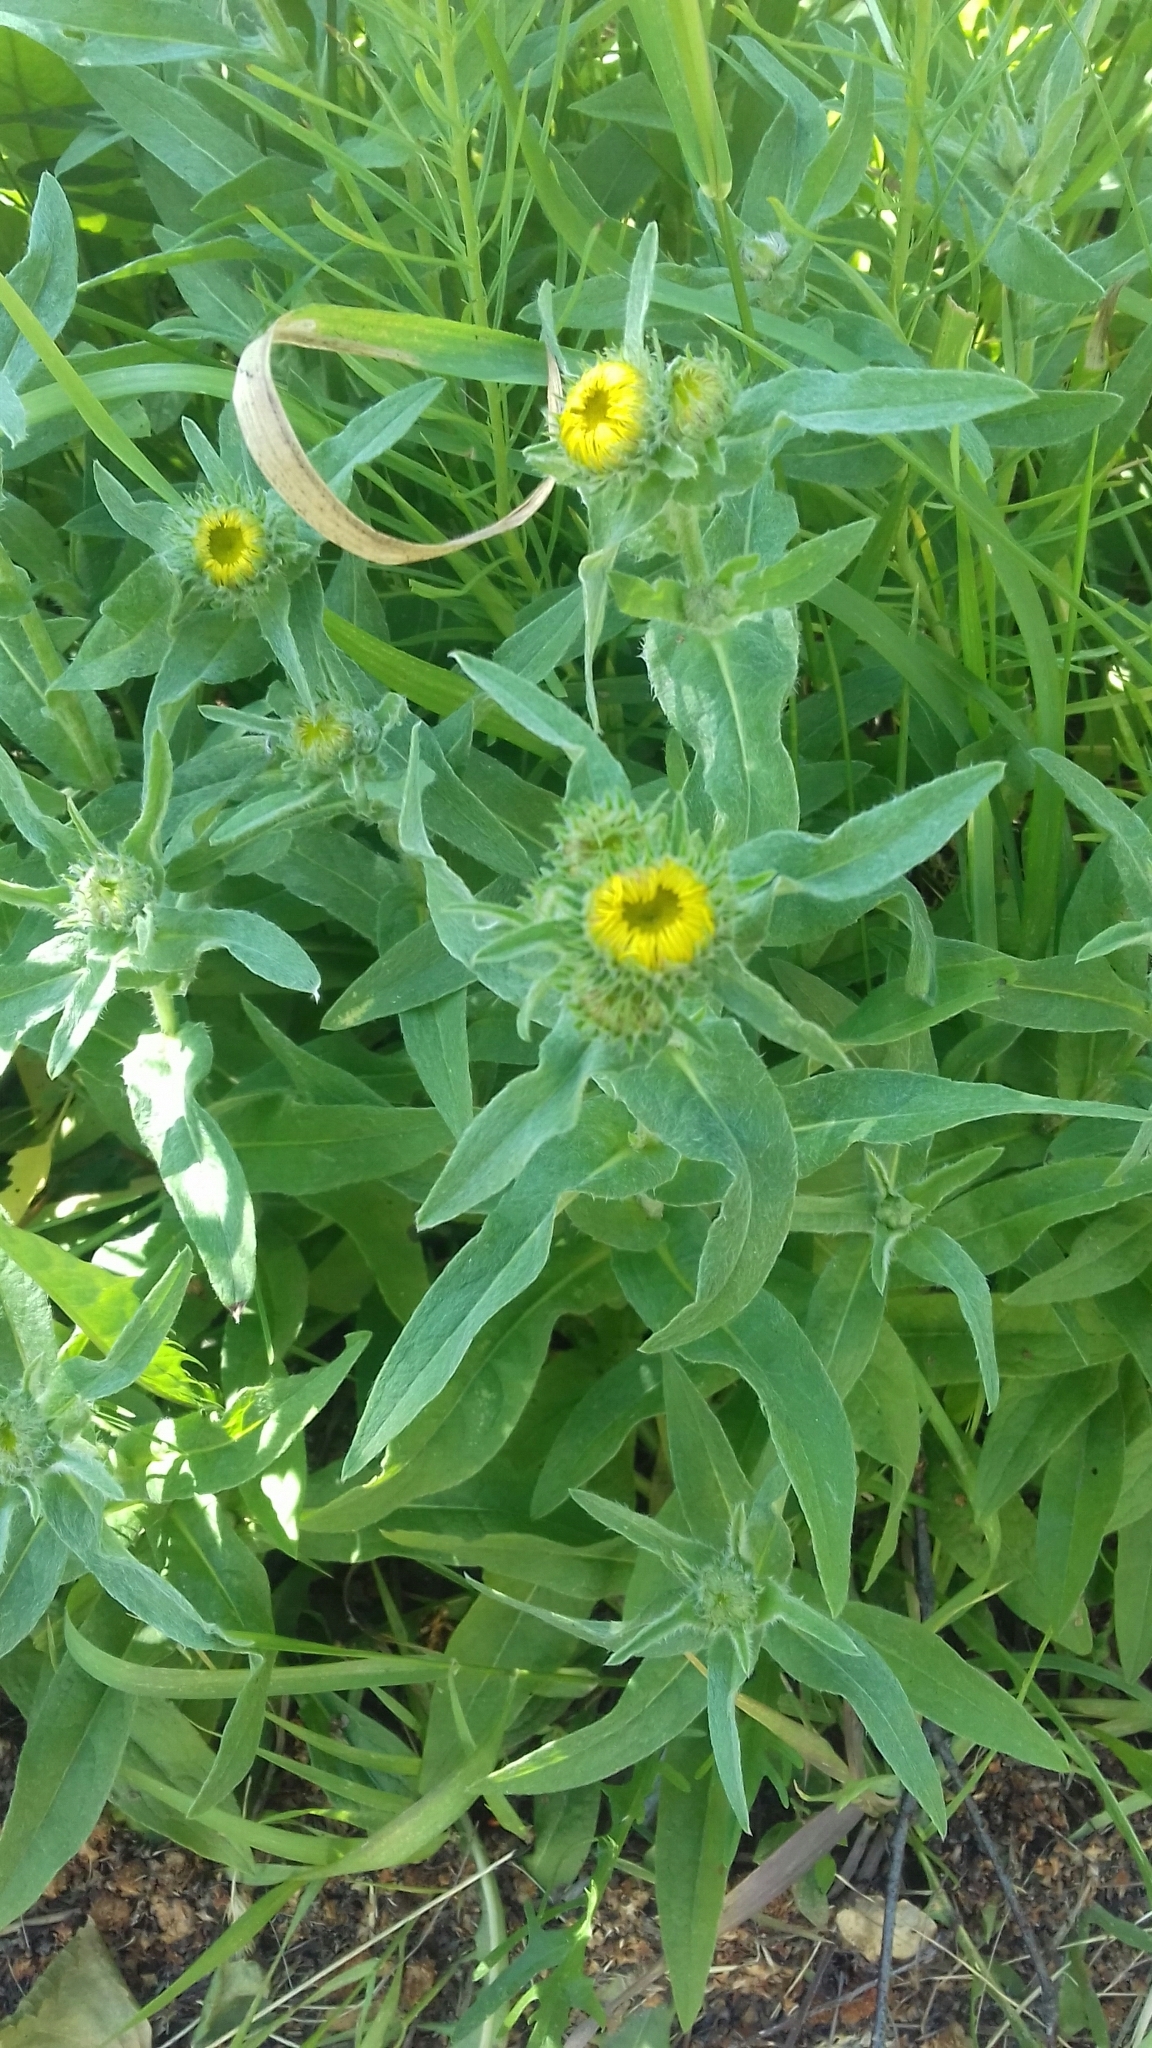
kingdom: Plantae
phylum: Tracheophyta
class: Magnoliopsida
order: Asterales
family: Asteraceae
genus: Pentanema
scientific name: Pentanema britannicum
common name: British elecampane
